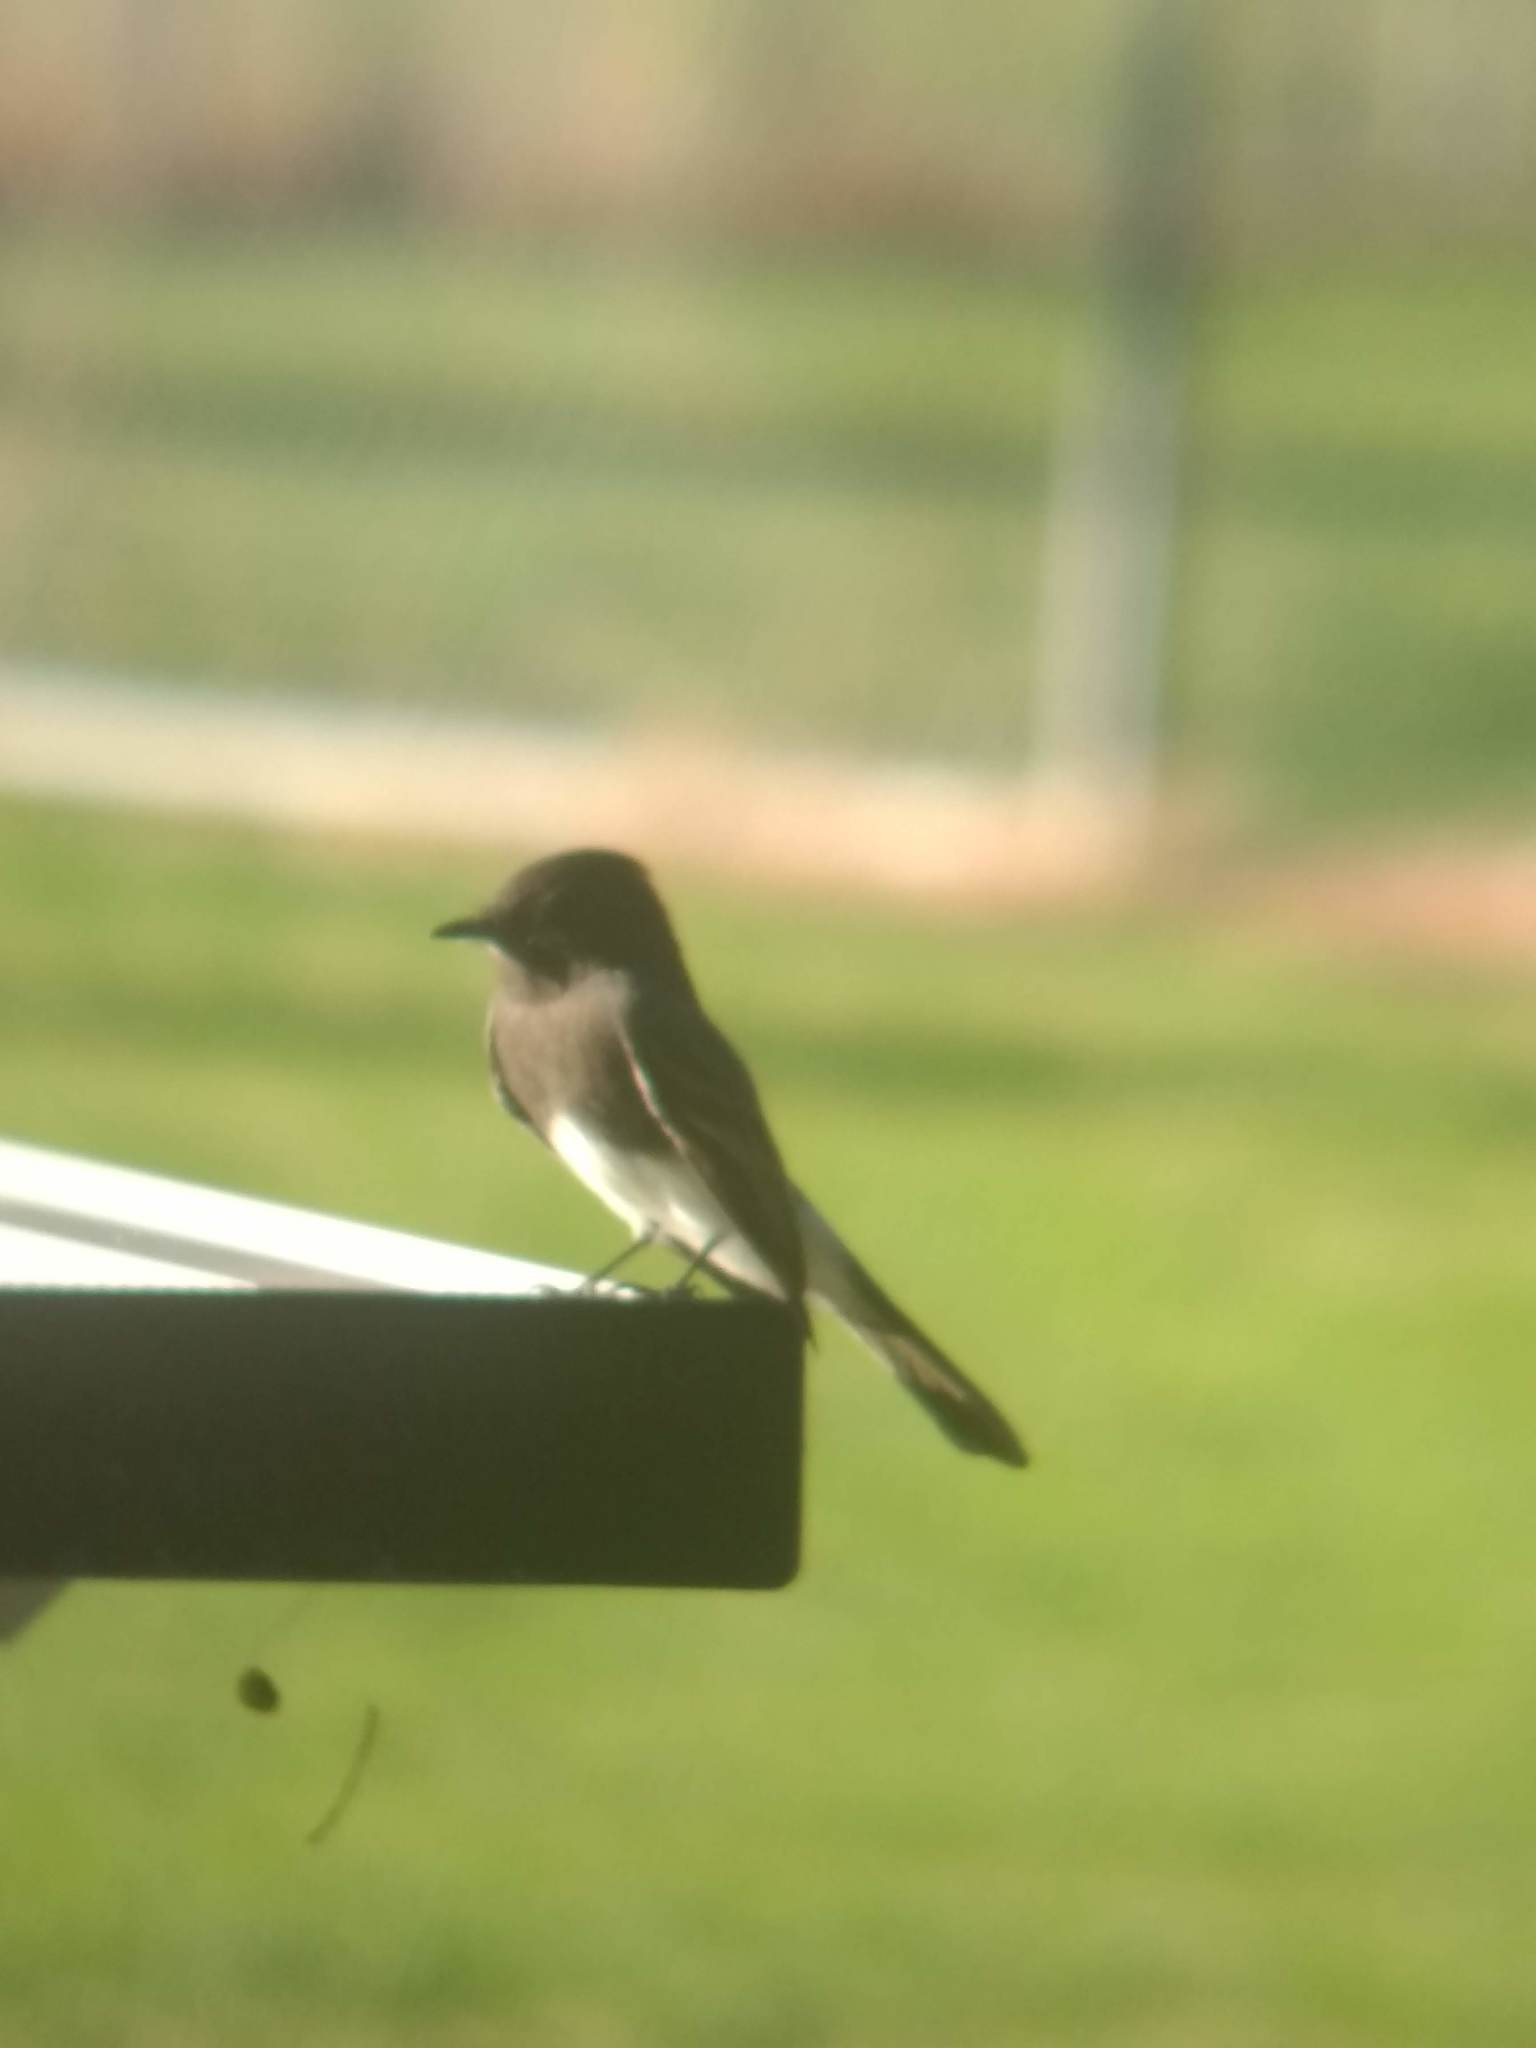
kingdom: Animalia
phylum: Chordata
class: Aves
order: Passeriformes
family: Tyrannidae
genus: Sayornis
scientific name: Sayornis nigricans
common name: Black phoebe
